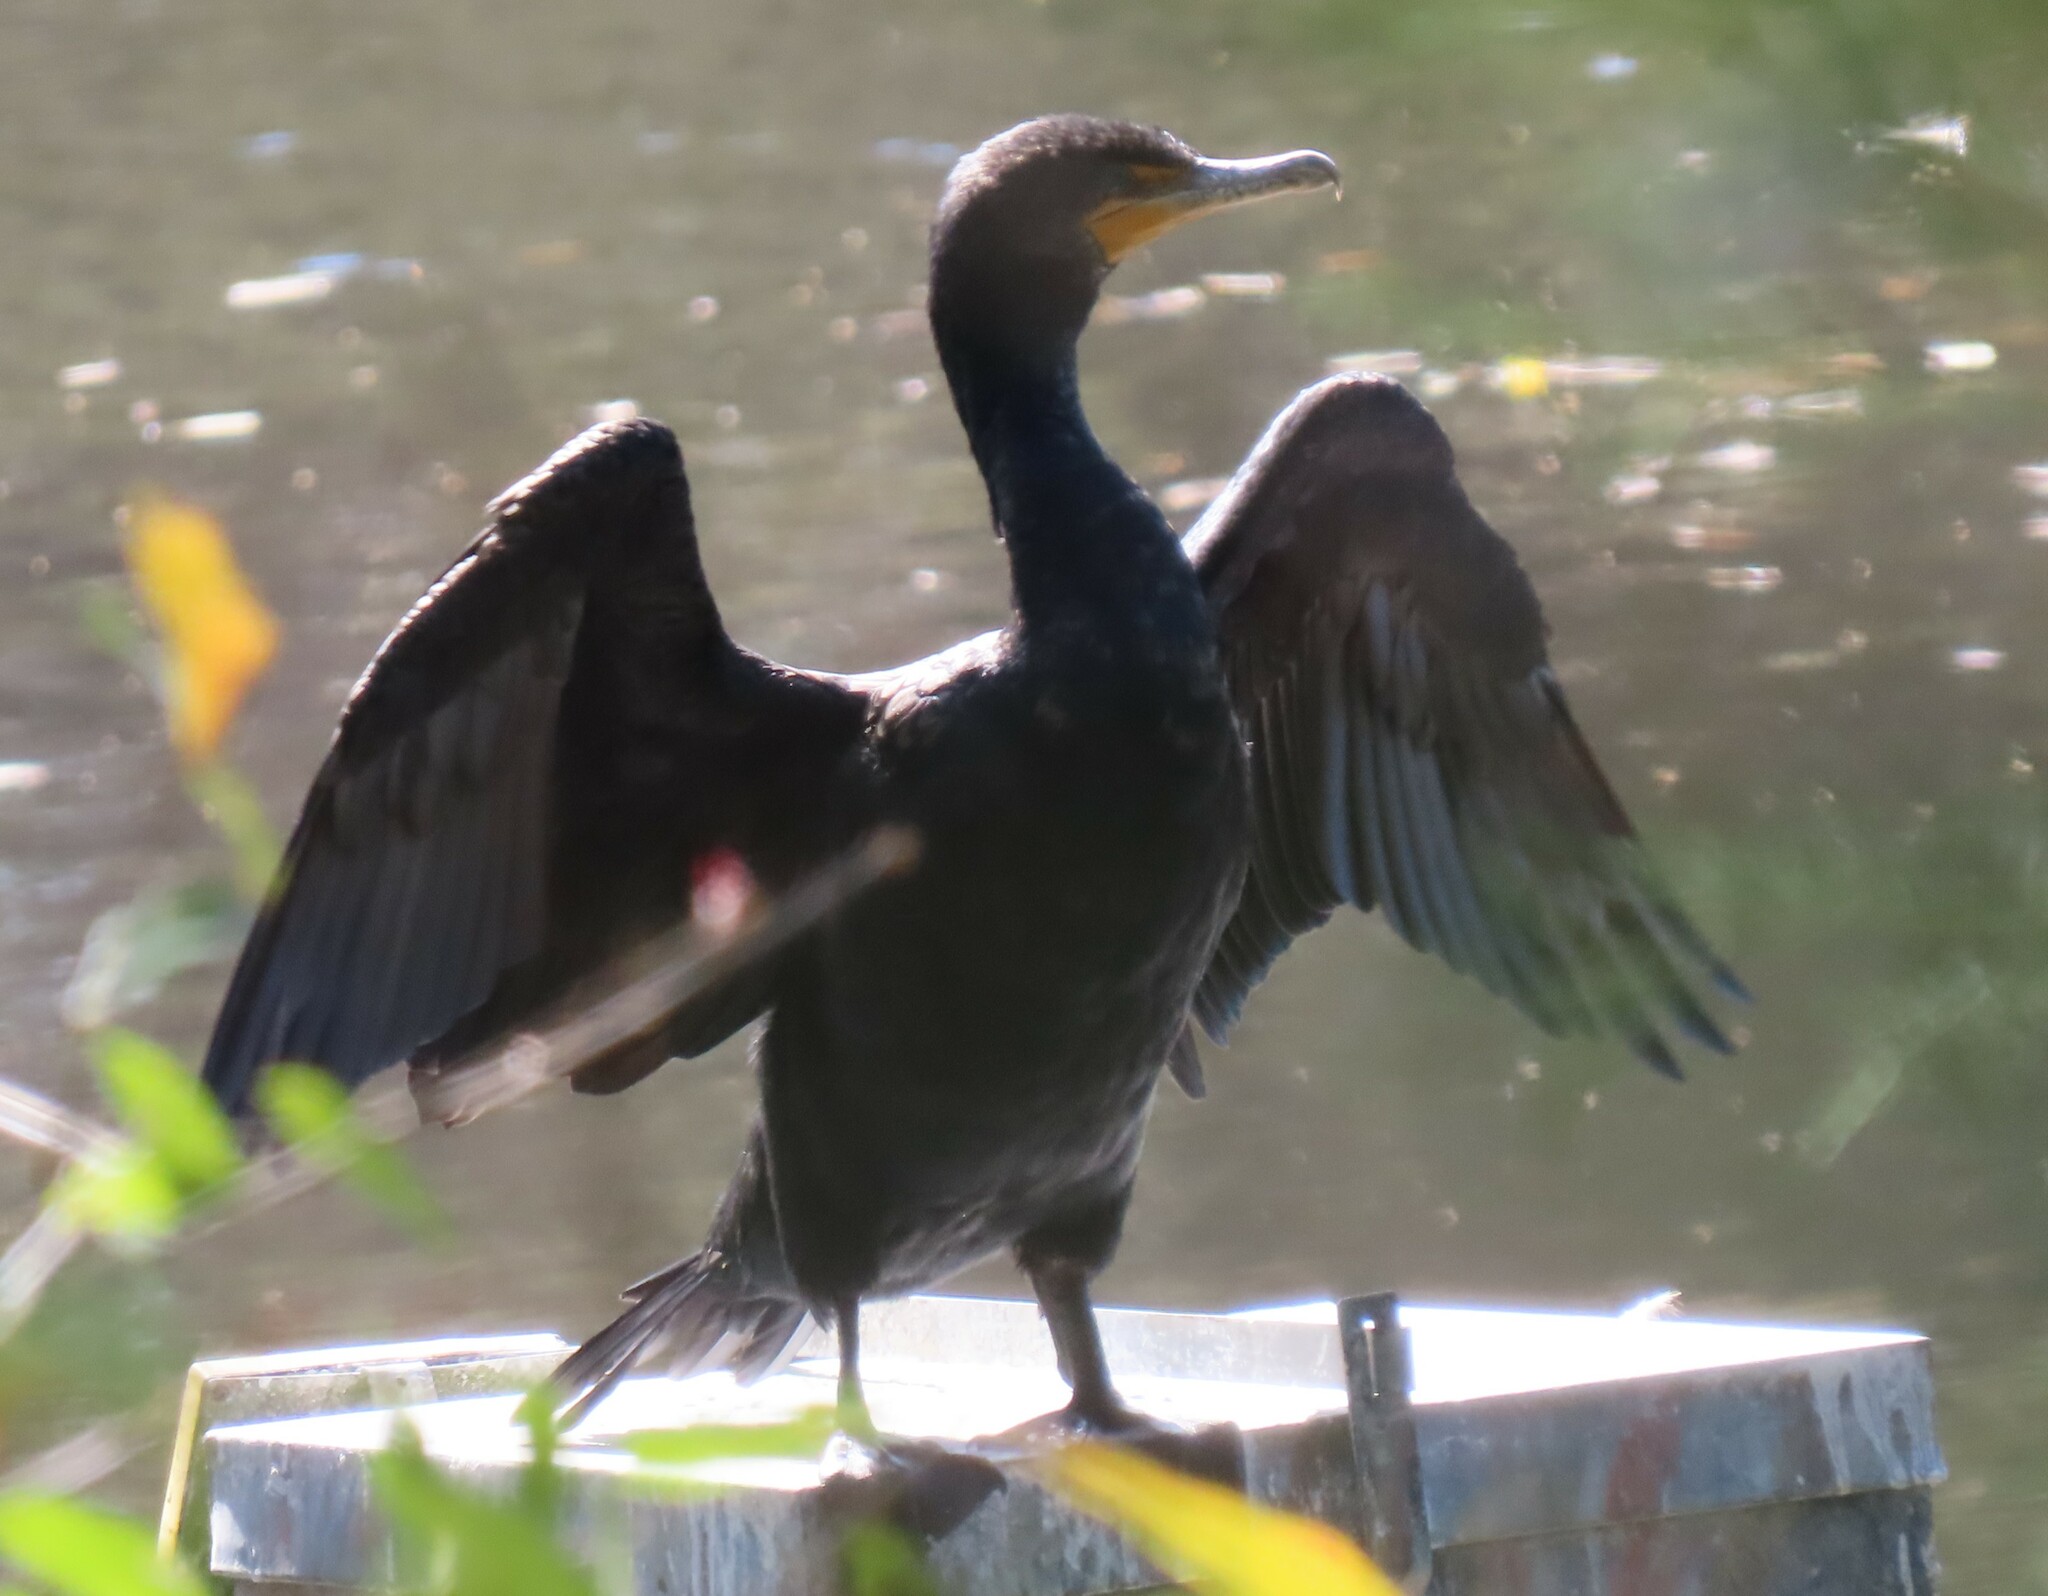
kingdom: Animalia
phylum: Chordata
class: Aves
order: Suliformes
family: Phalacrocoracidae
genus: Phalacrocorax
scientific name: Phalacrocorax auritus
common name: Double-crested cormorant
